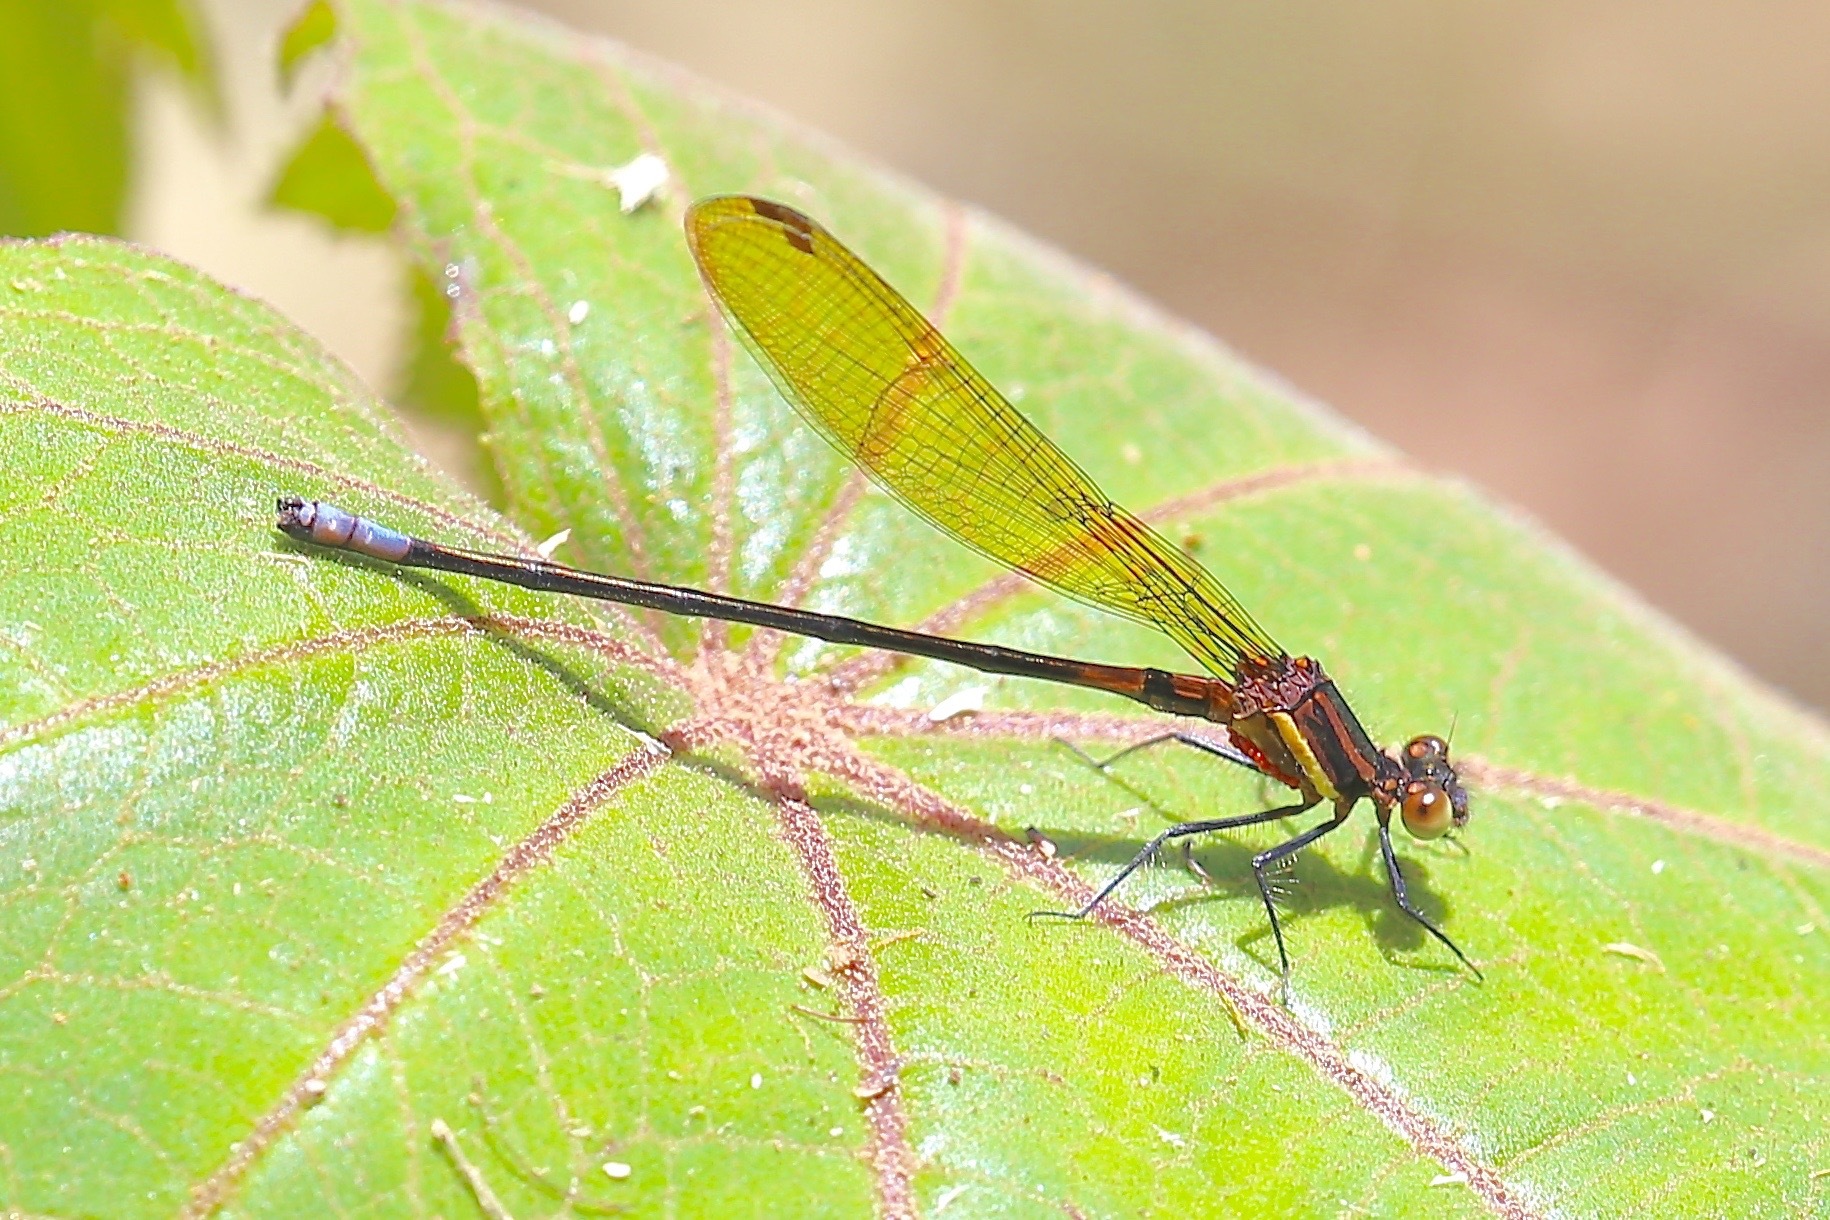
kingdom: Animalia
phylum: Arthropoda
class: Insecta
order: Odonata
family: Coenagrionidae
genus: Argia
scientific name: Argia terira
